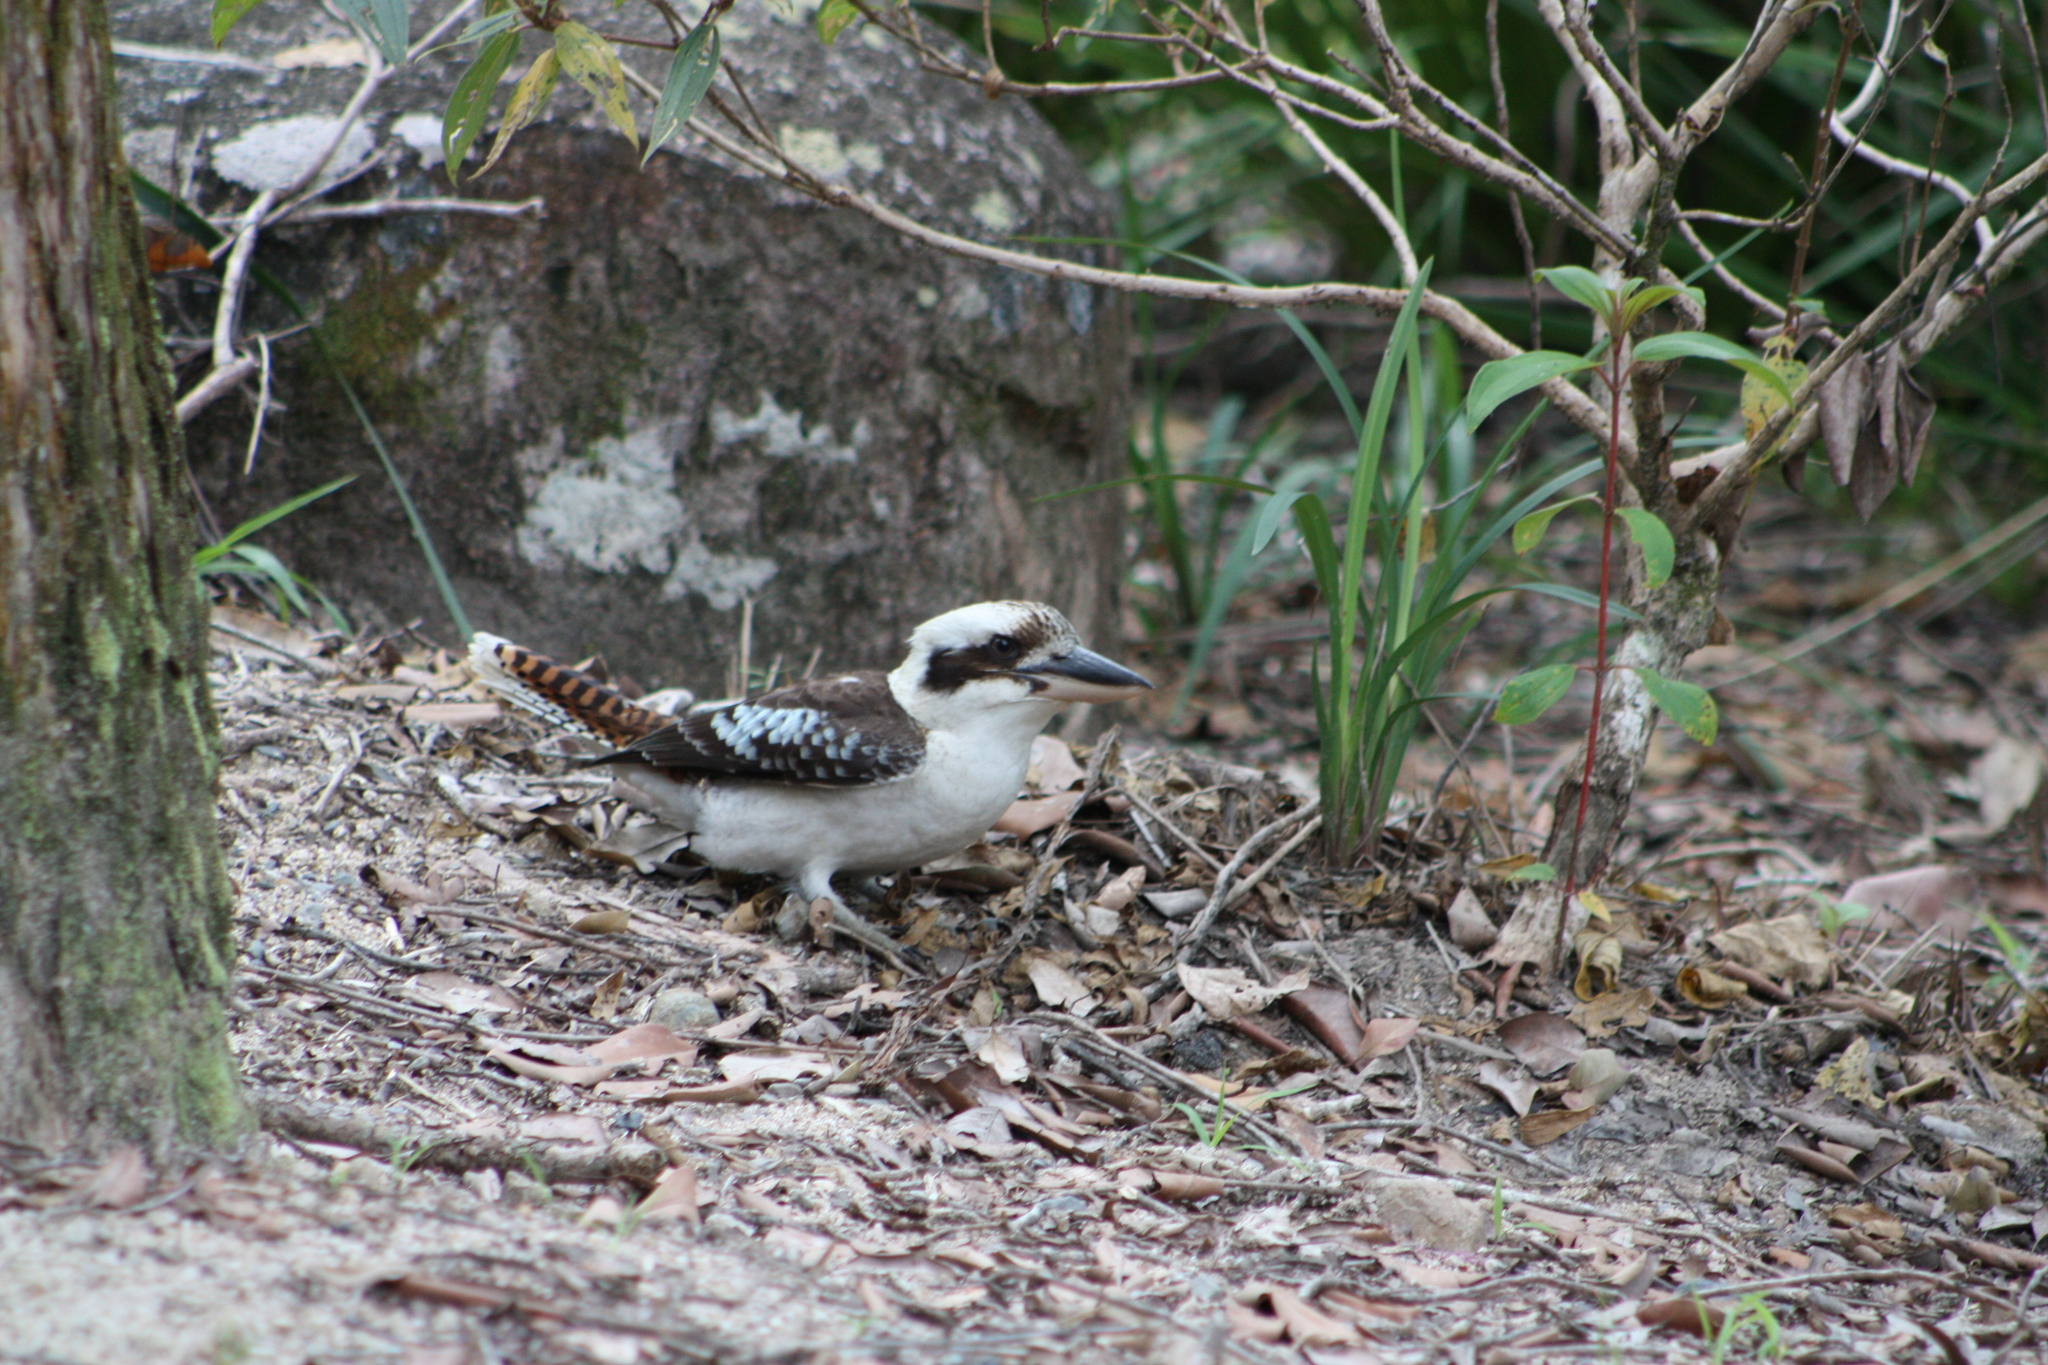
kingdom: Animalia
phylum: Chordata
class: Aves
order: Coraciiformes
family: Alcedinidae
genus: Dacelo
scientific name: Dacelo novaeguineae
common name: Laughing kookaburra
